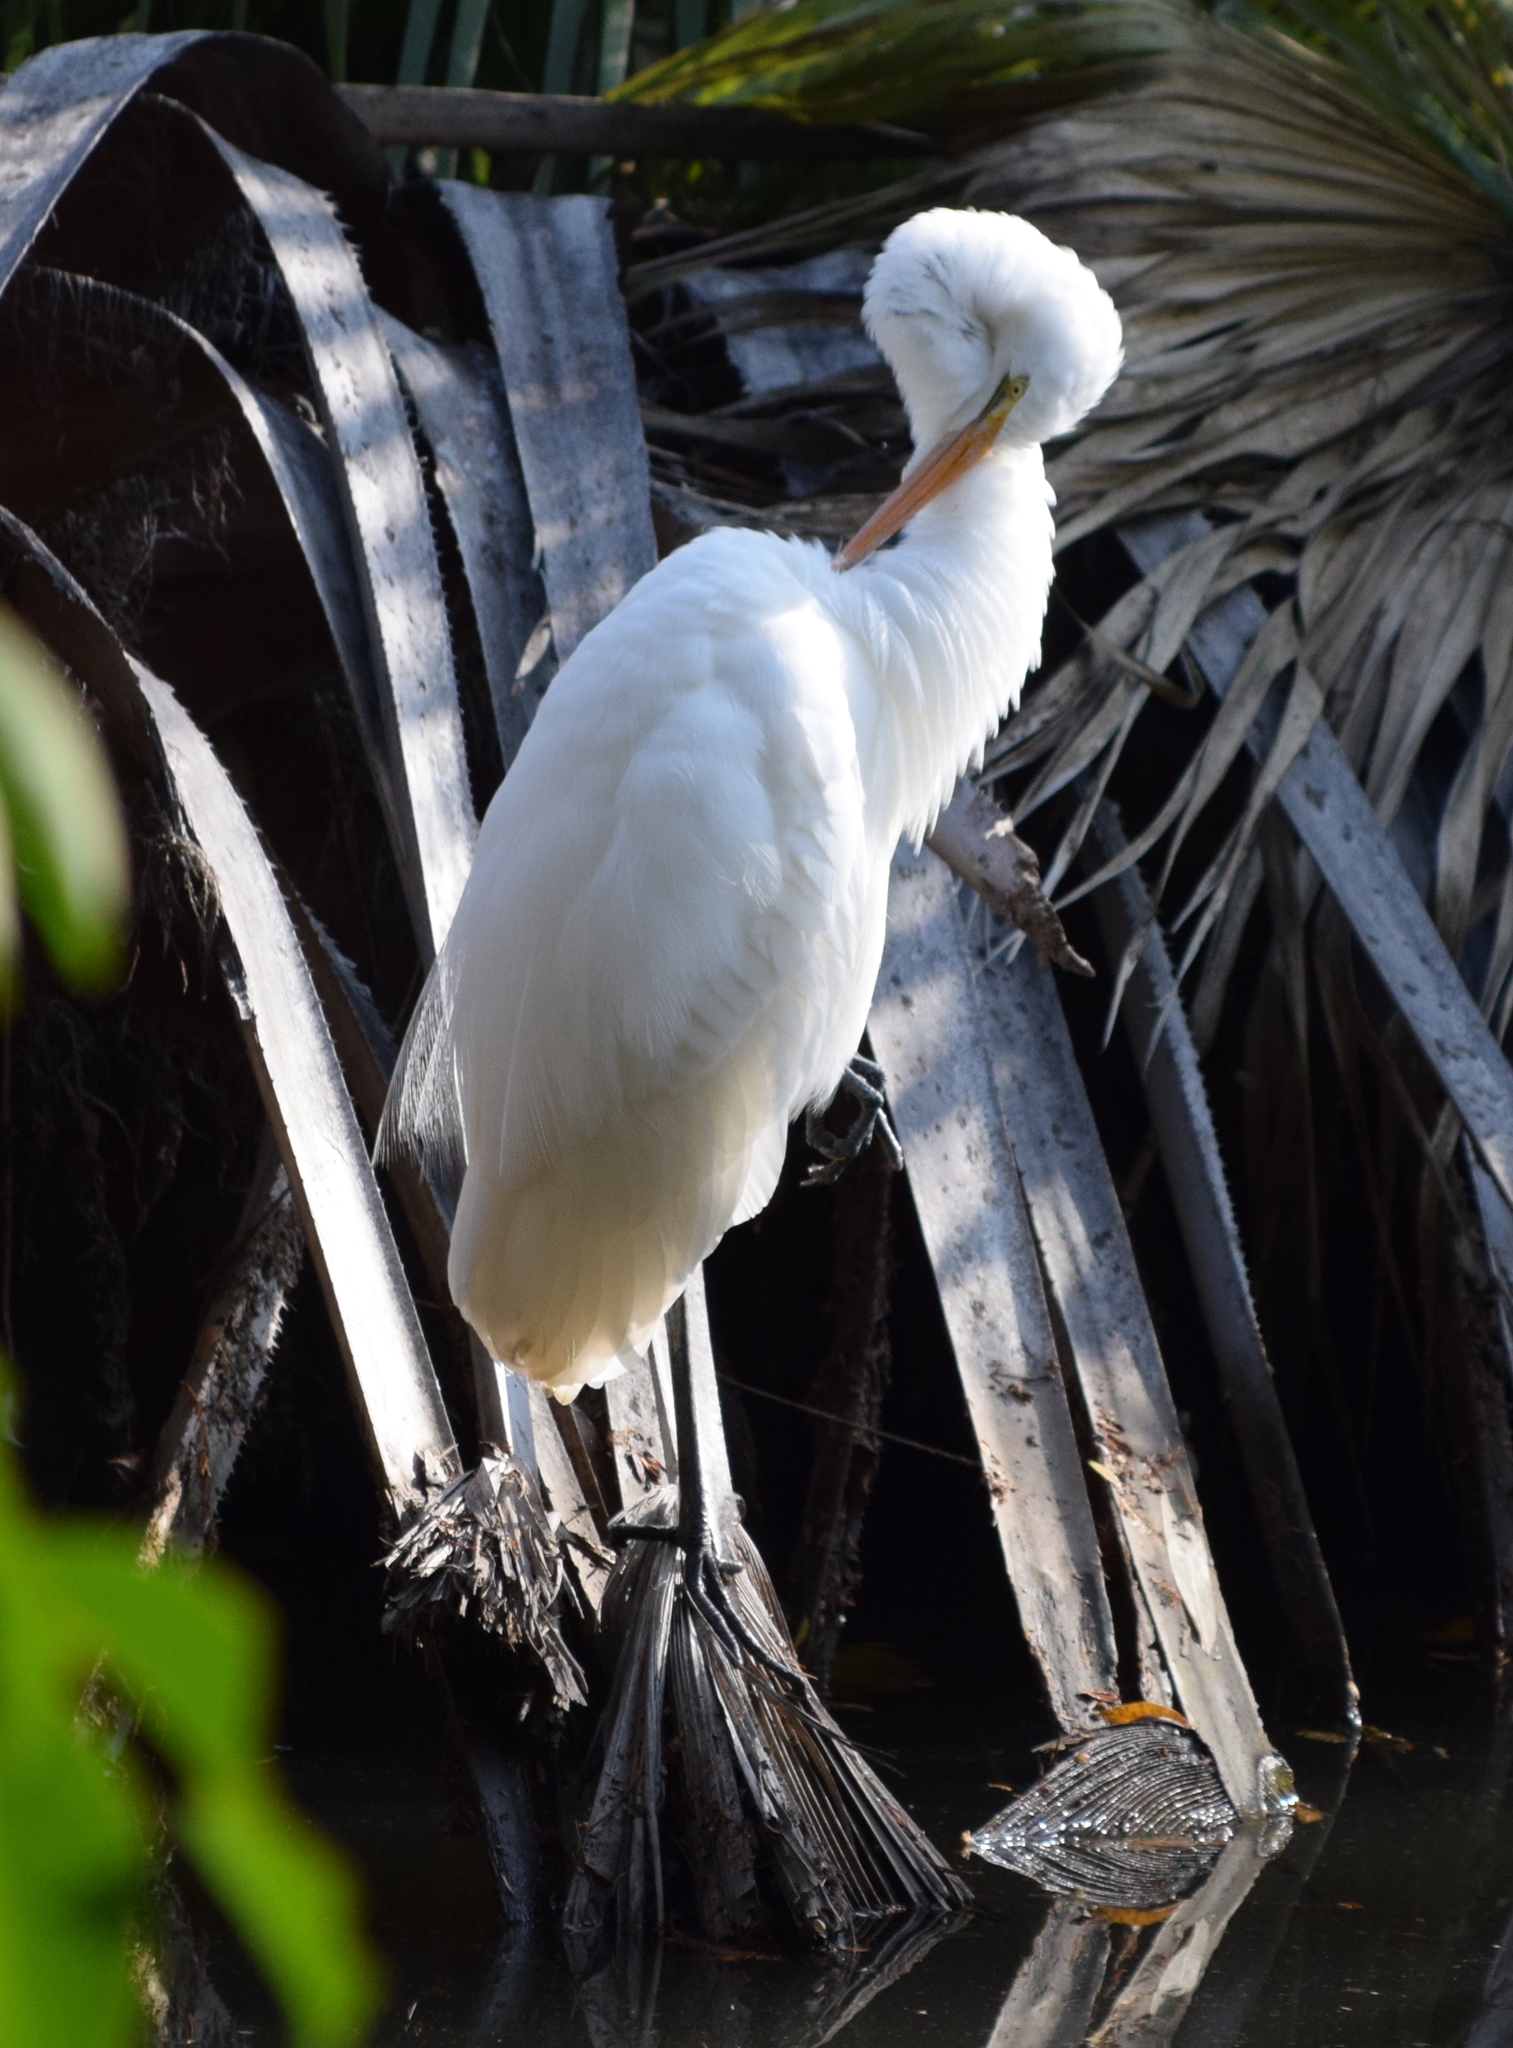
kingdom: Animalia
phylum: Chordata
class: Aves
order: Pelecaniformes
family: Ardeidae
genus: Ardea
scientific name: Ardea alba
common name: Great egret
